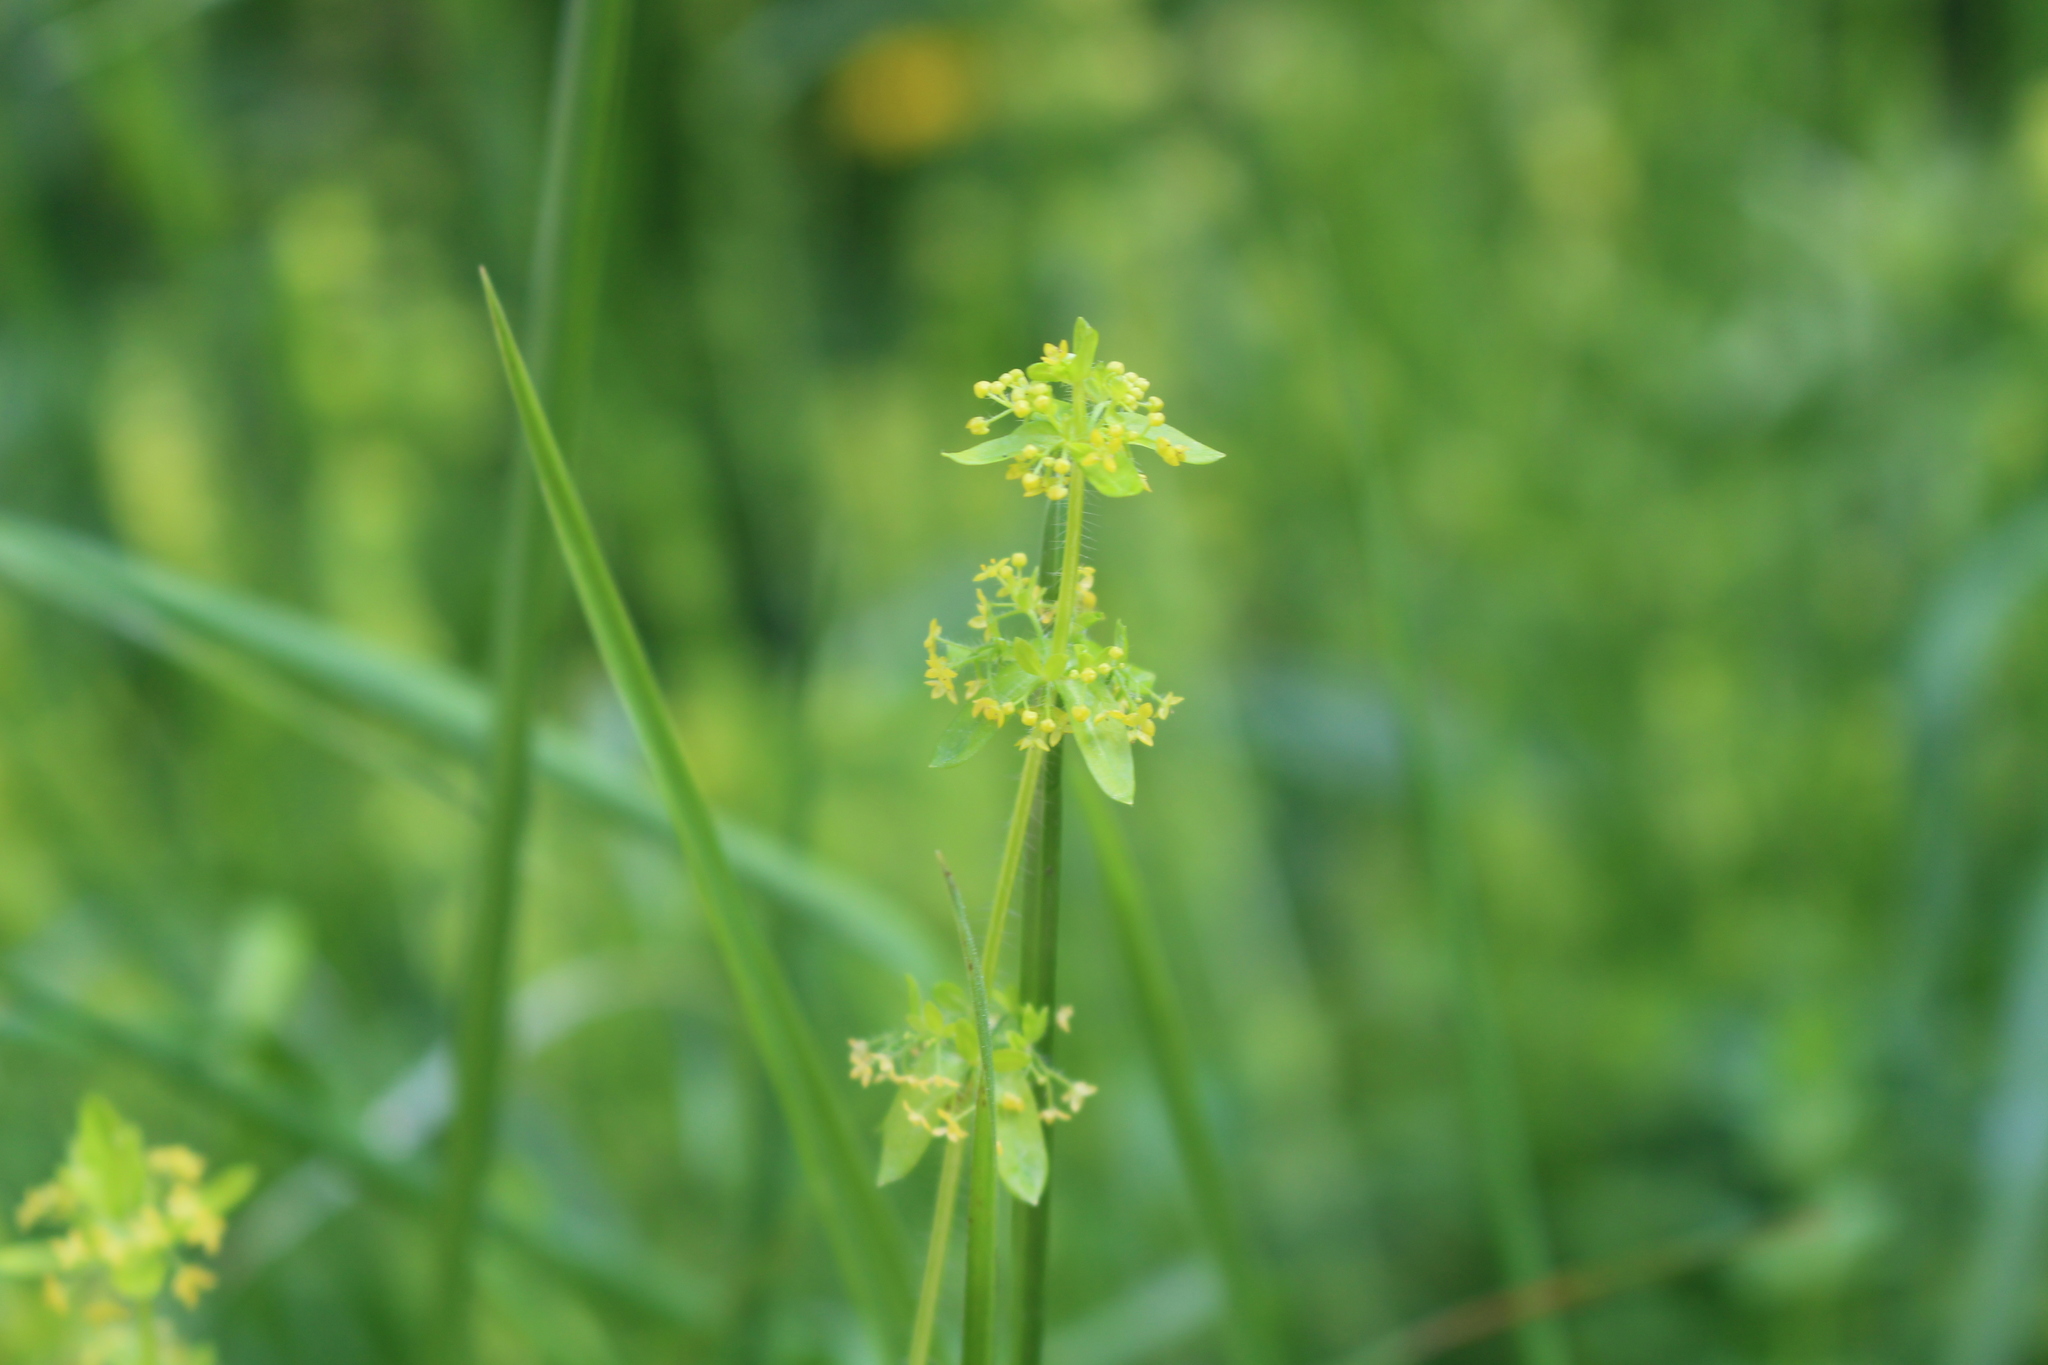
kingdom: Plantae
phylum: Tracheophyta
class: Magnoliopsida
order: Gentianales
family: Rubiaceae
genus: Cruciata
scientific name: Cruciata laevipes
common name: Crosswort
